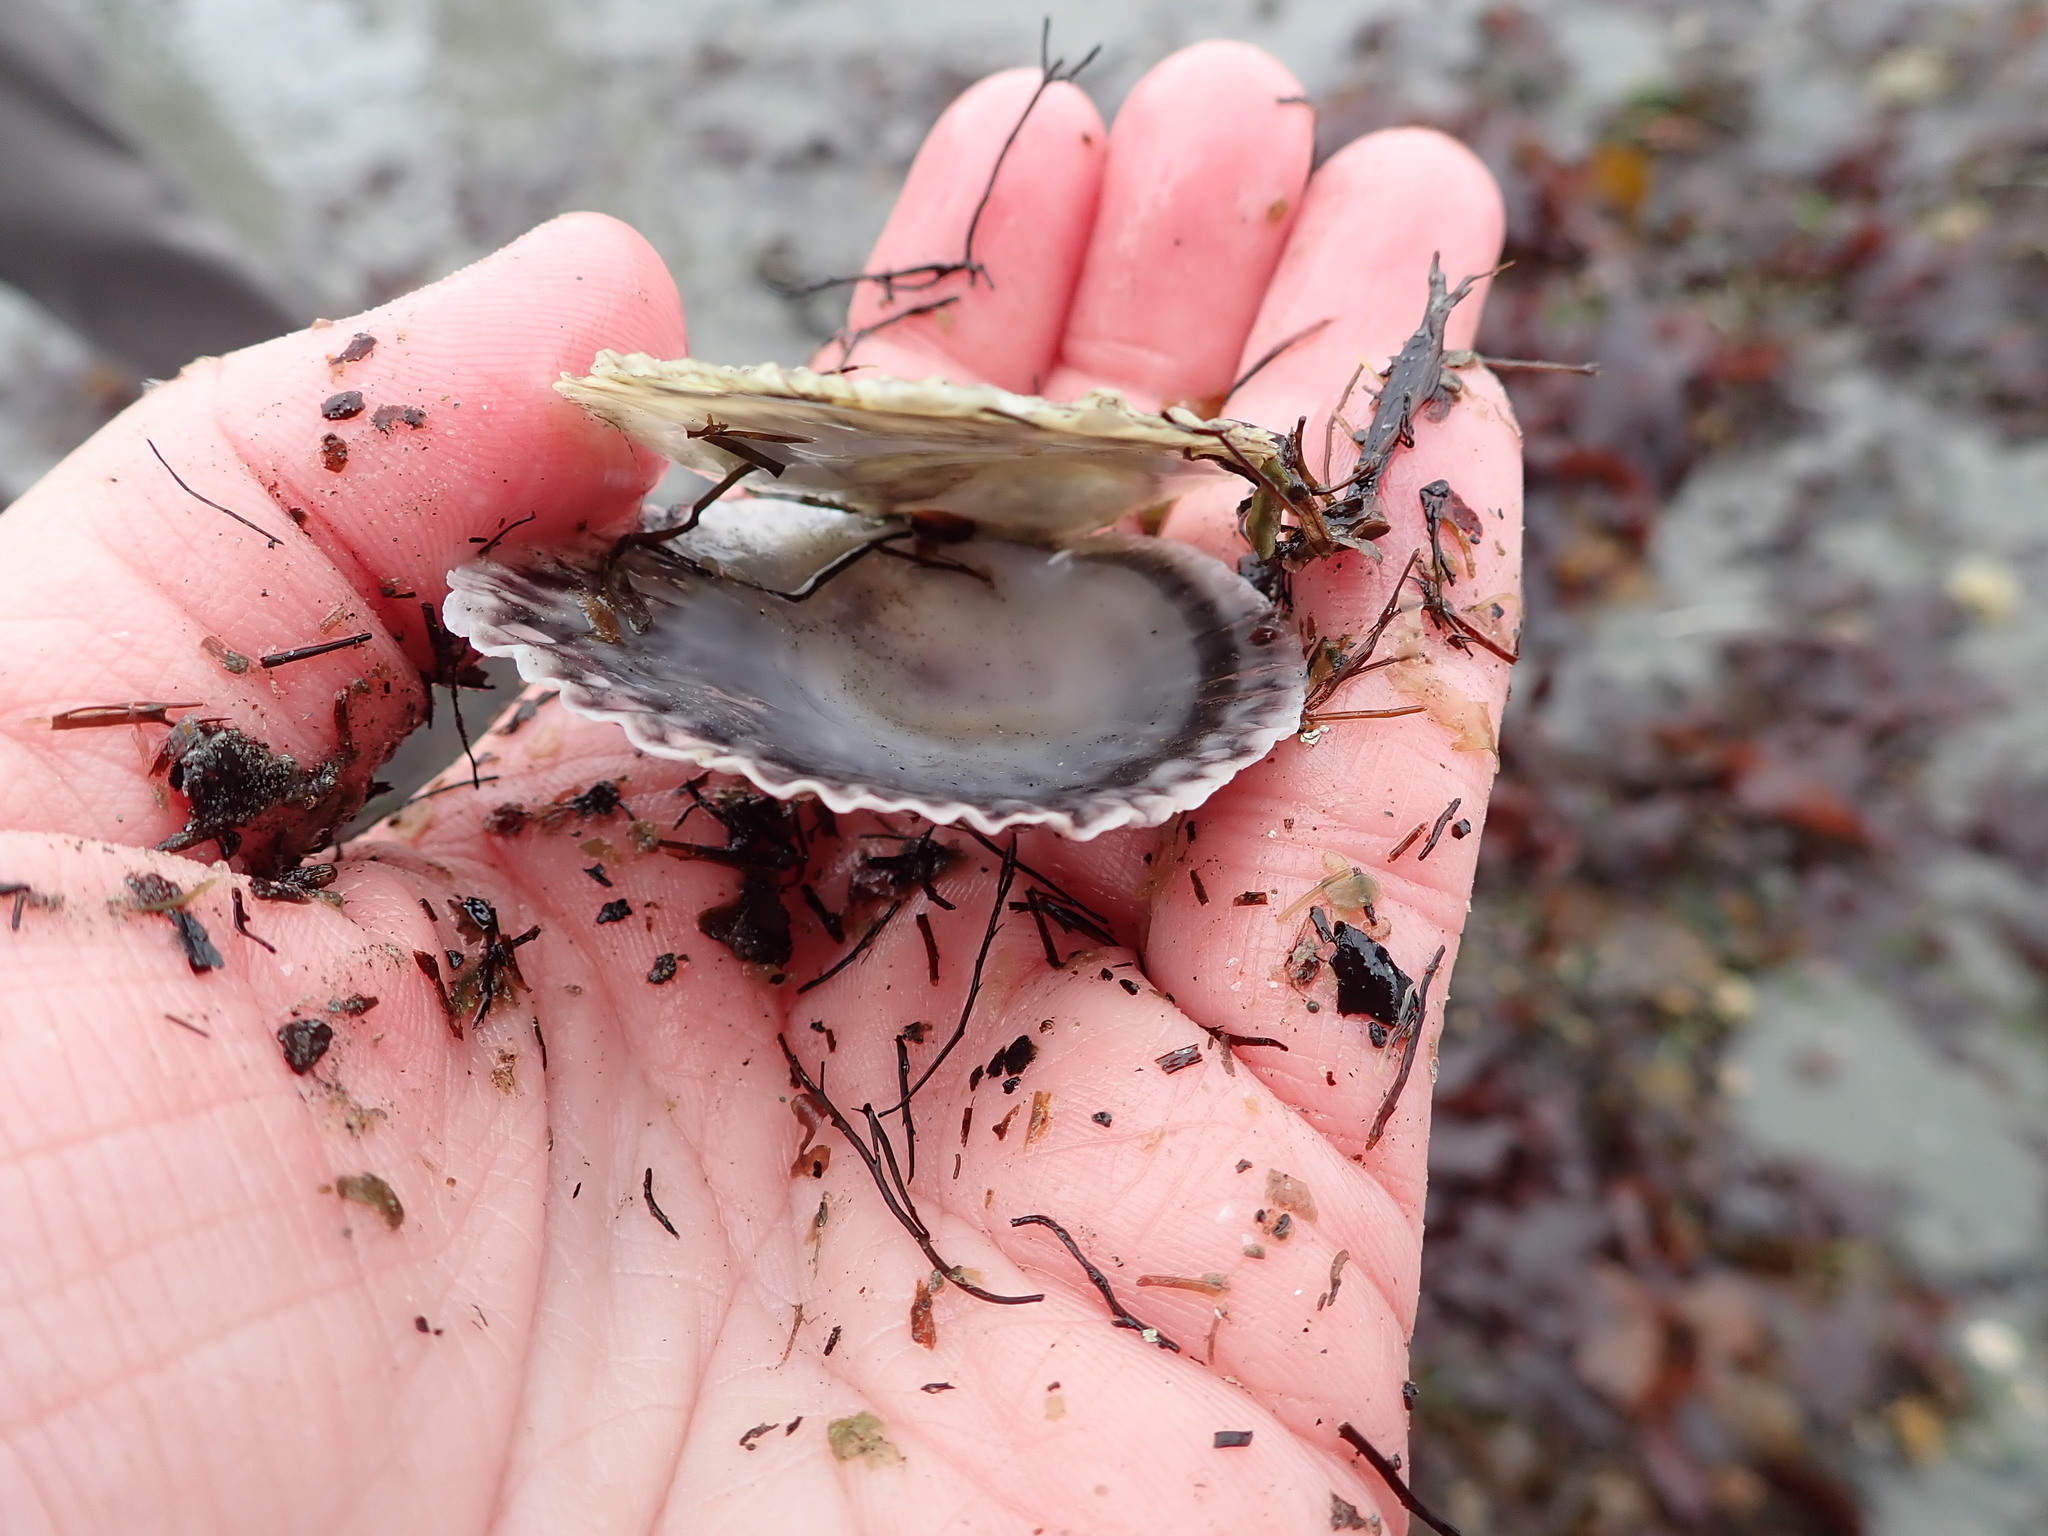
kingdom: Animalia
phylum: Mollusca
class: Bivalvia
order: Ostreida
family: Ostreidae
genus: Ostrea
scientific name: Ostrea edulis
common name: Flat oyster
